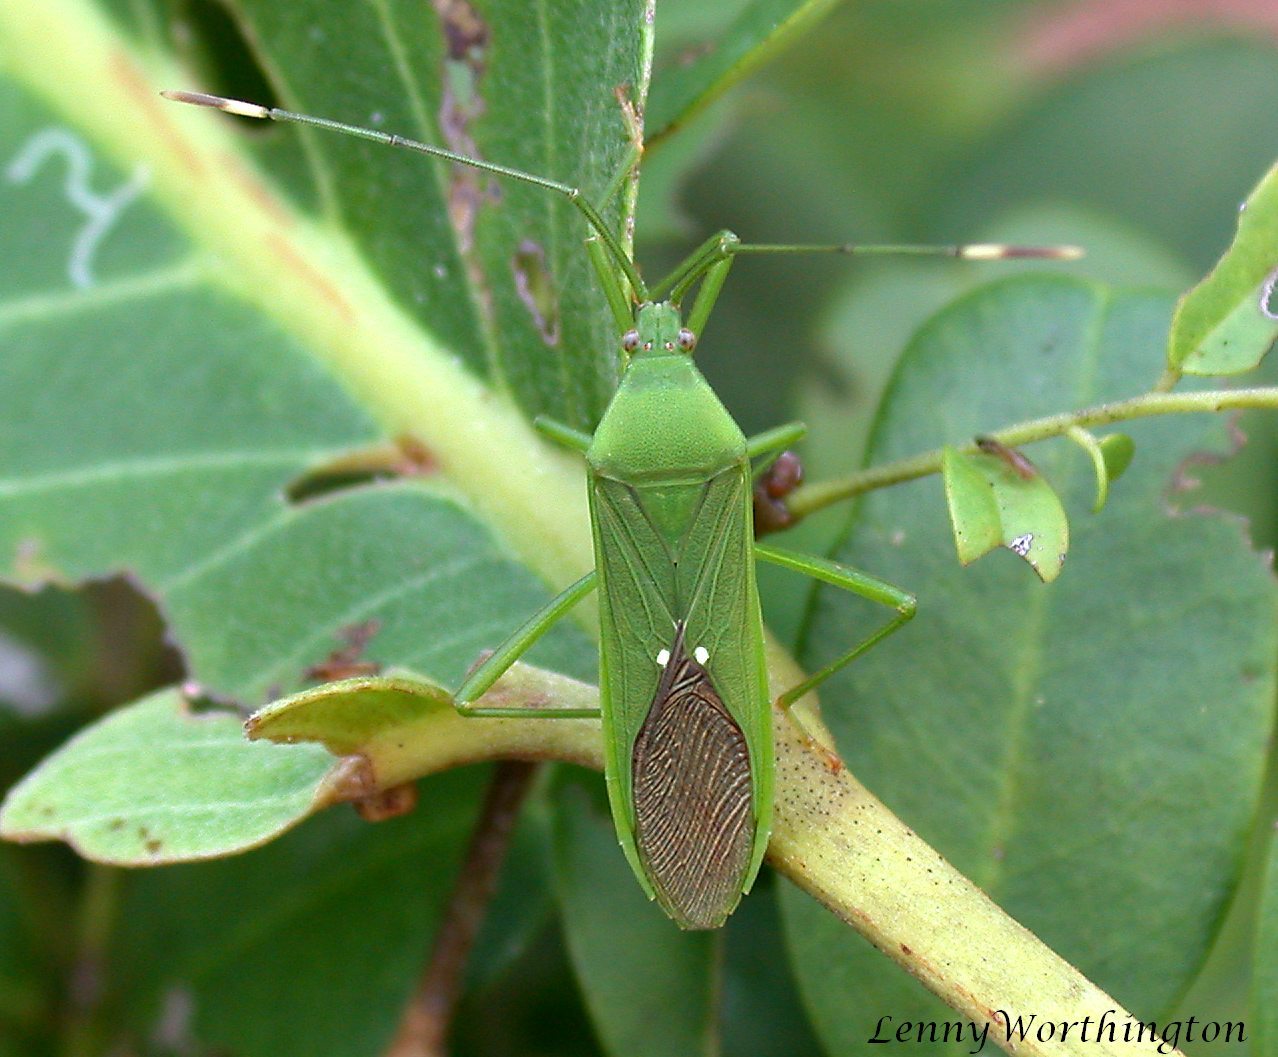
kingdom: Animalia
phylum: Arthropoda
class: Insecta
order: Hemiptera
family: Coreidae
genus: Homoeocerus
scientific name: Homoeocerus graminis
